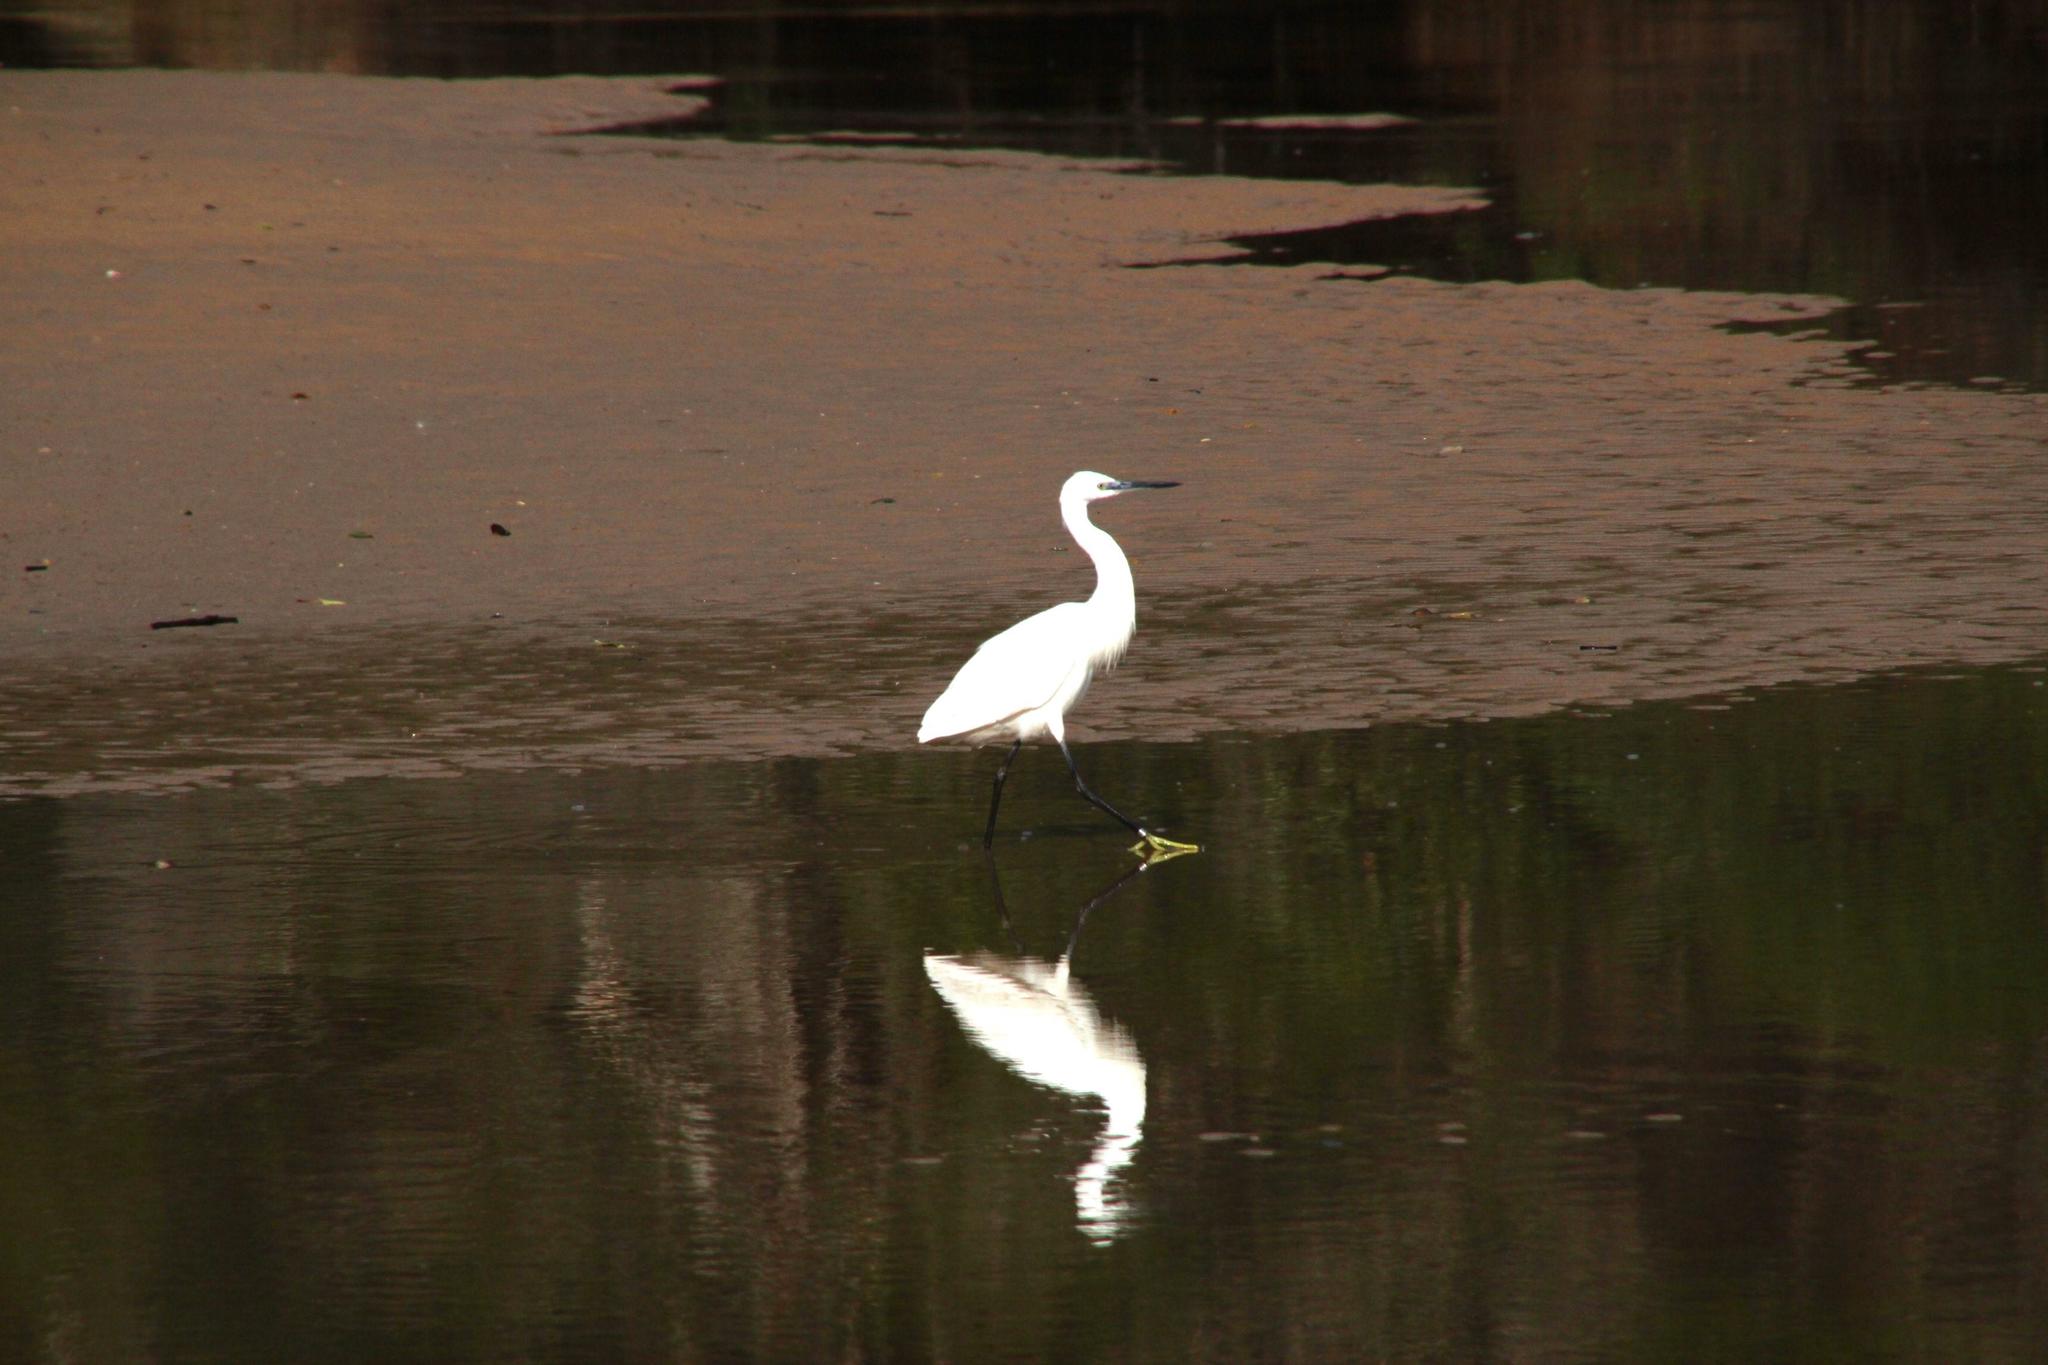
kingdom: Animalia
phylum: Chordata
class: Aves
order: Pelecaniformes
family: Ardeidae
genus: Egretta
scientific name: Egretta garzetta
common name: Little egret
